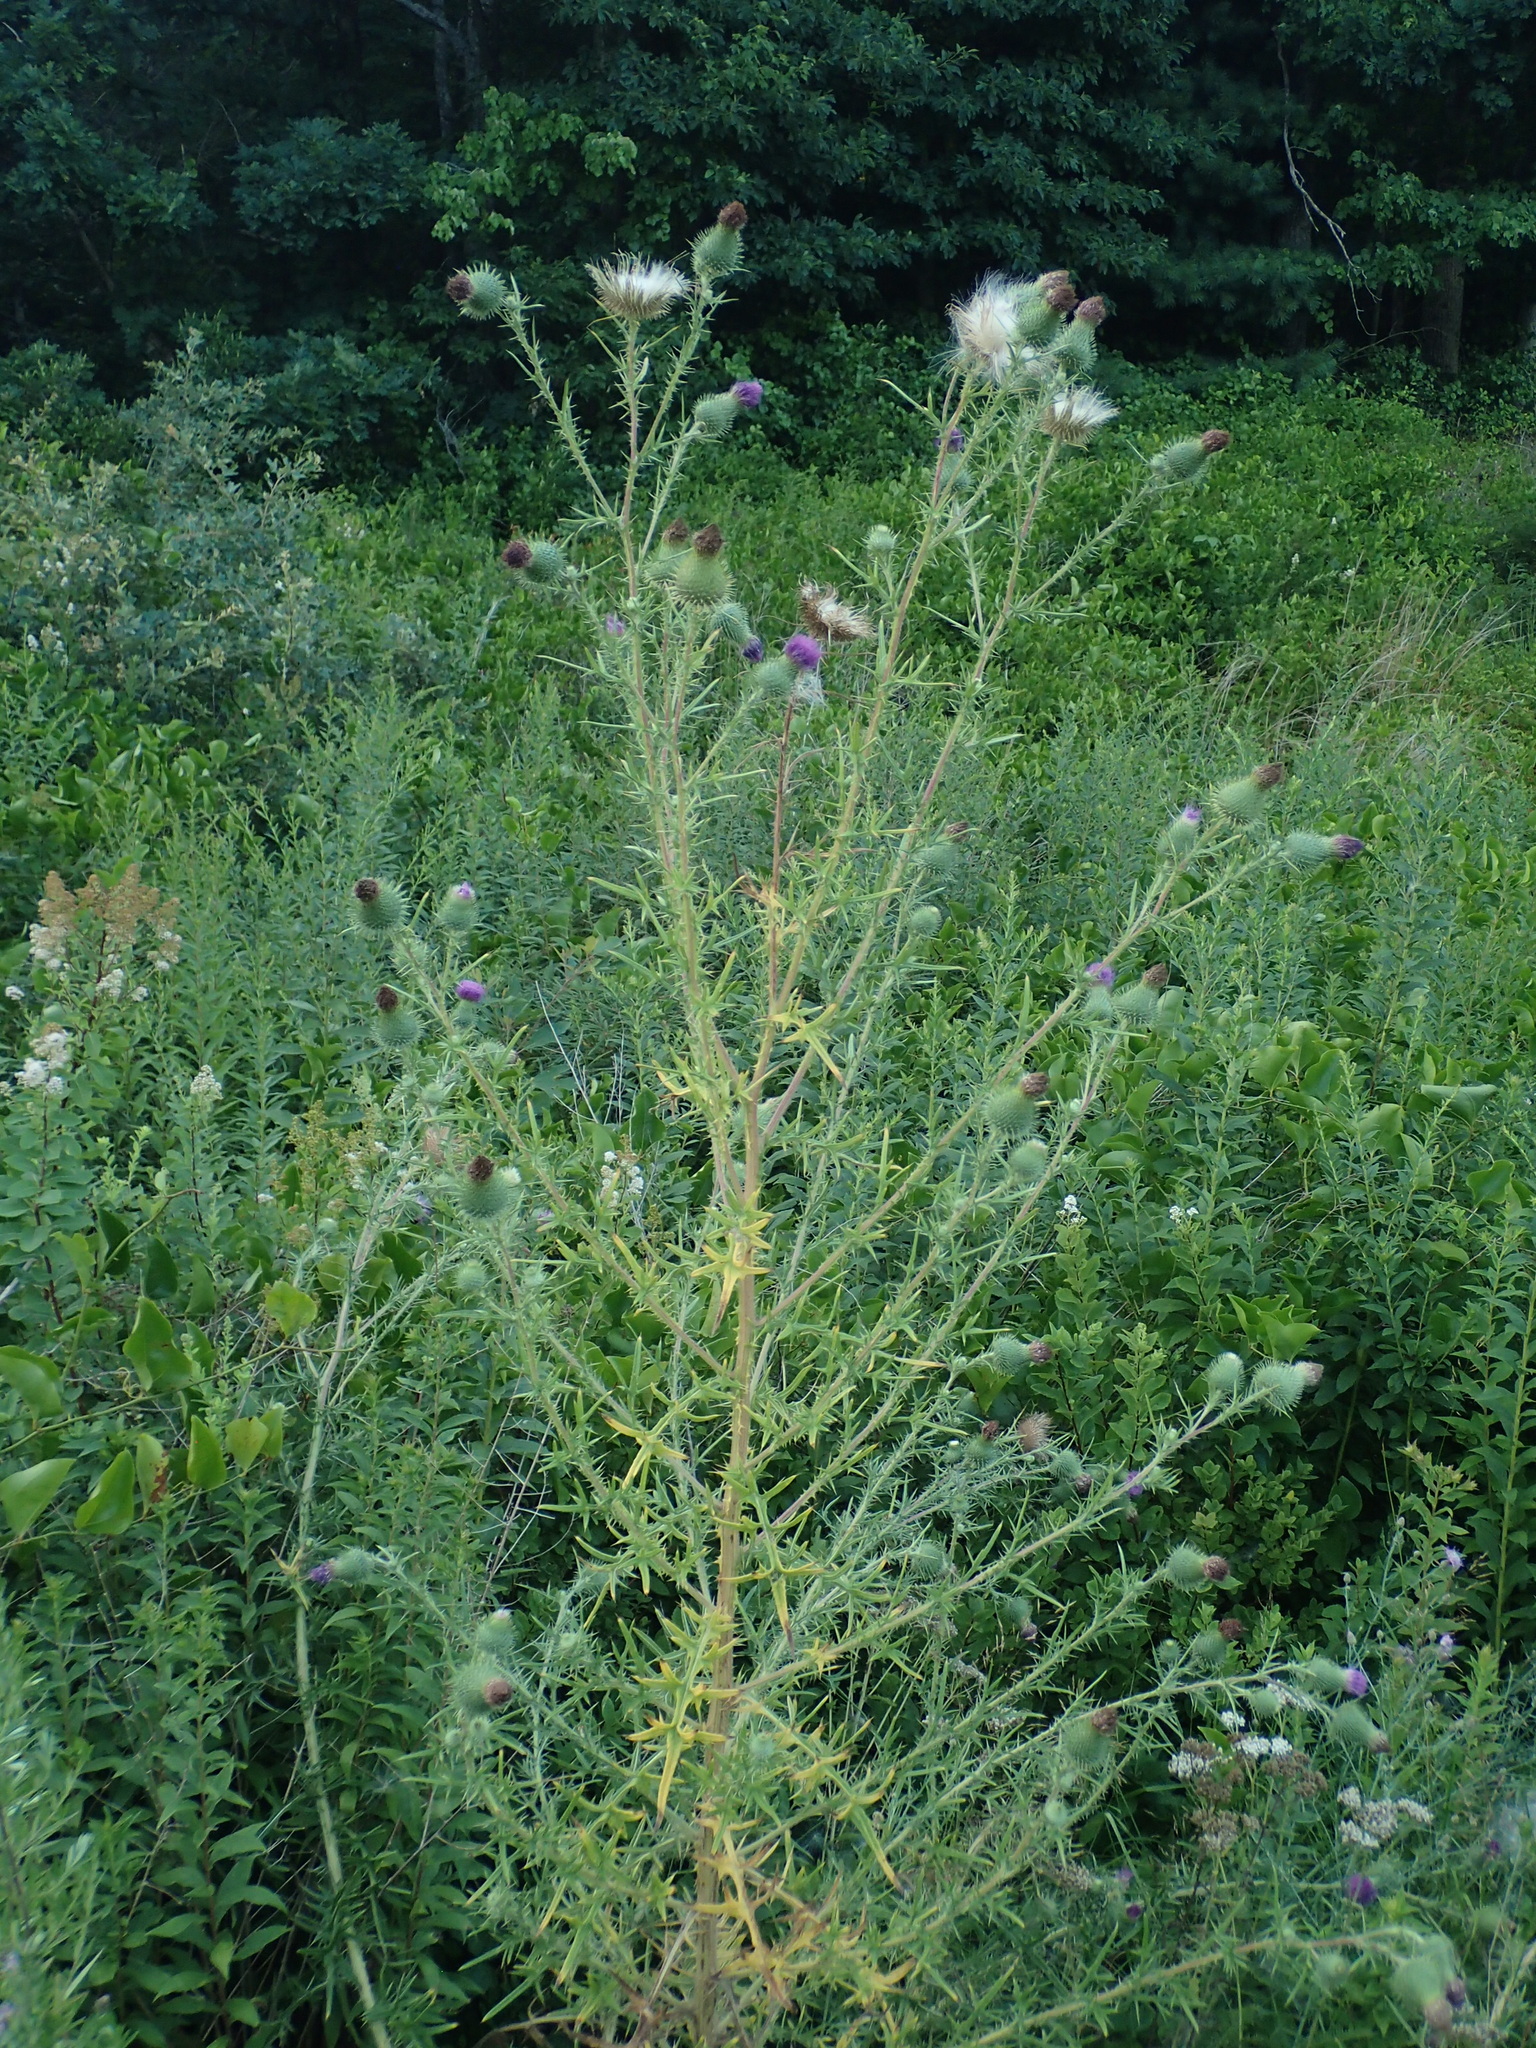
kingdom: Plantae
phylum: Tracheophyta
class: Magnoliopsida
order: Asterales
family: Asteraceae
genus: Cirsium
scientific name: Cirsium vulgare
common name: Bull thistle
